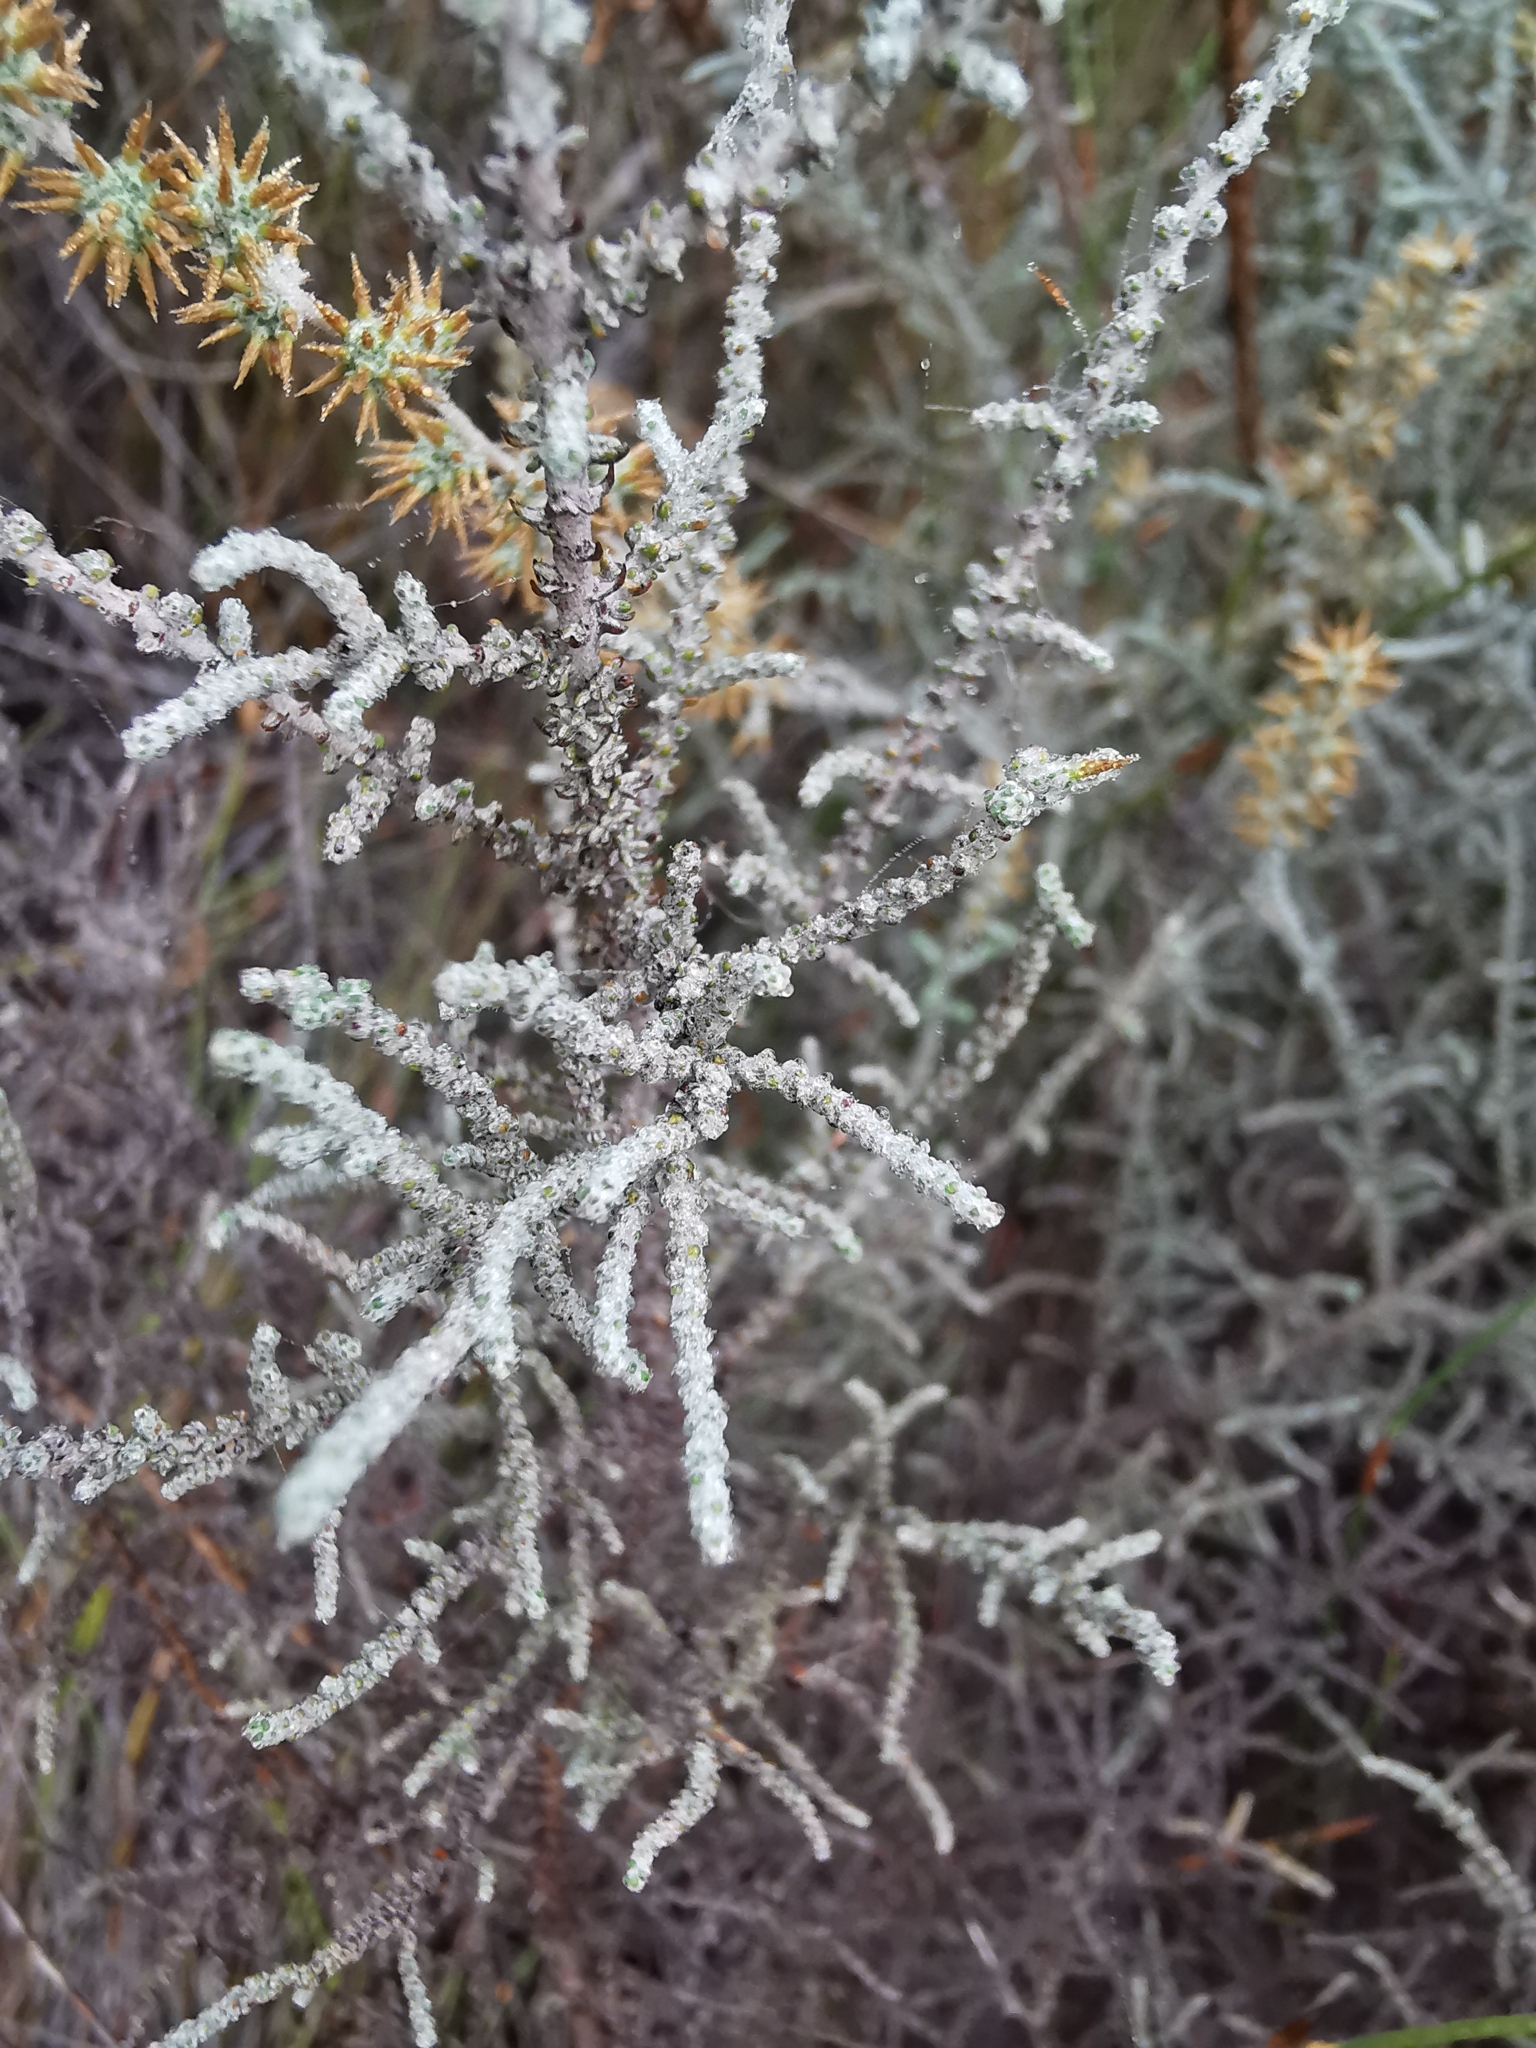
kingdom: Plantae
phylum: Tracheophyta
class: Magnoliopsida
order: Asterales
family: Asteraceae
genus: Seriphium
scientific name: Seriphium plumosum
